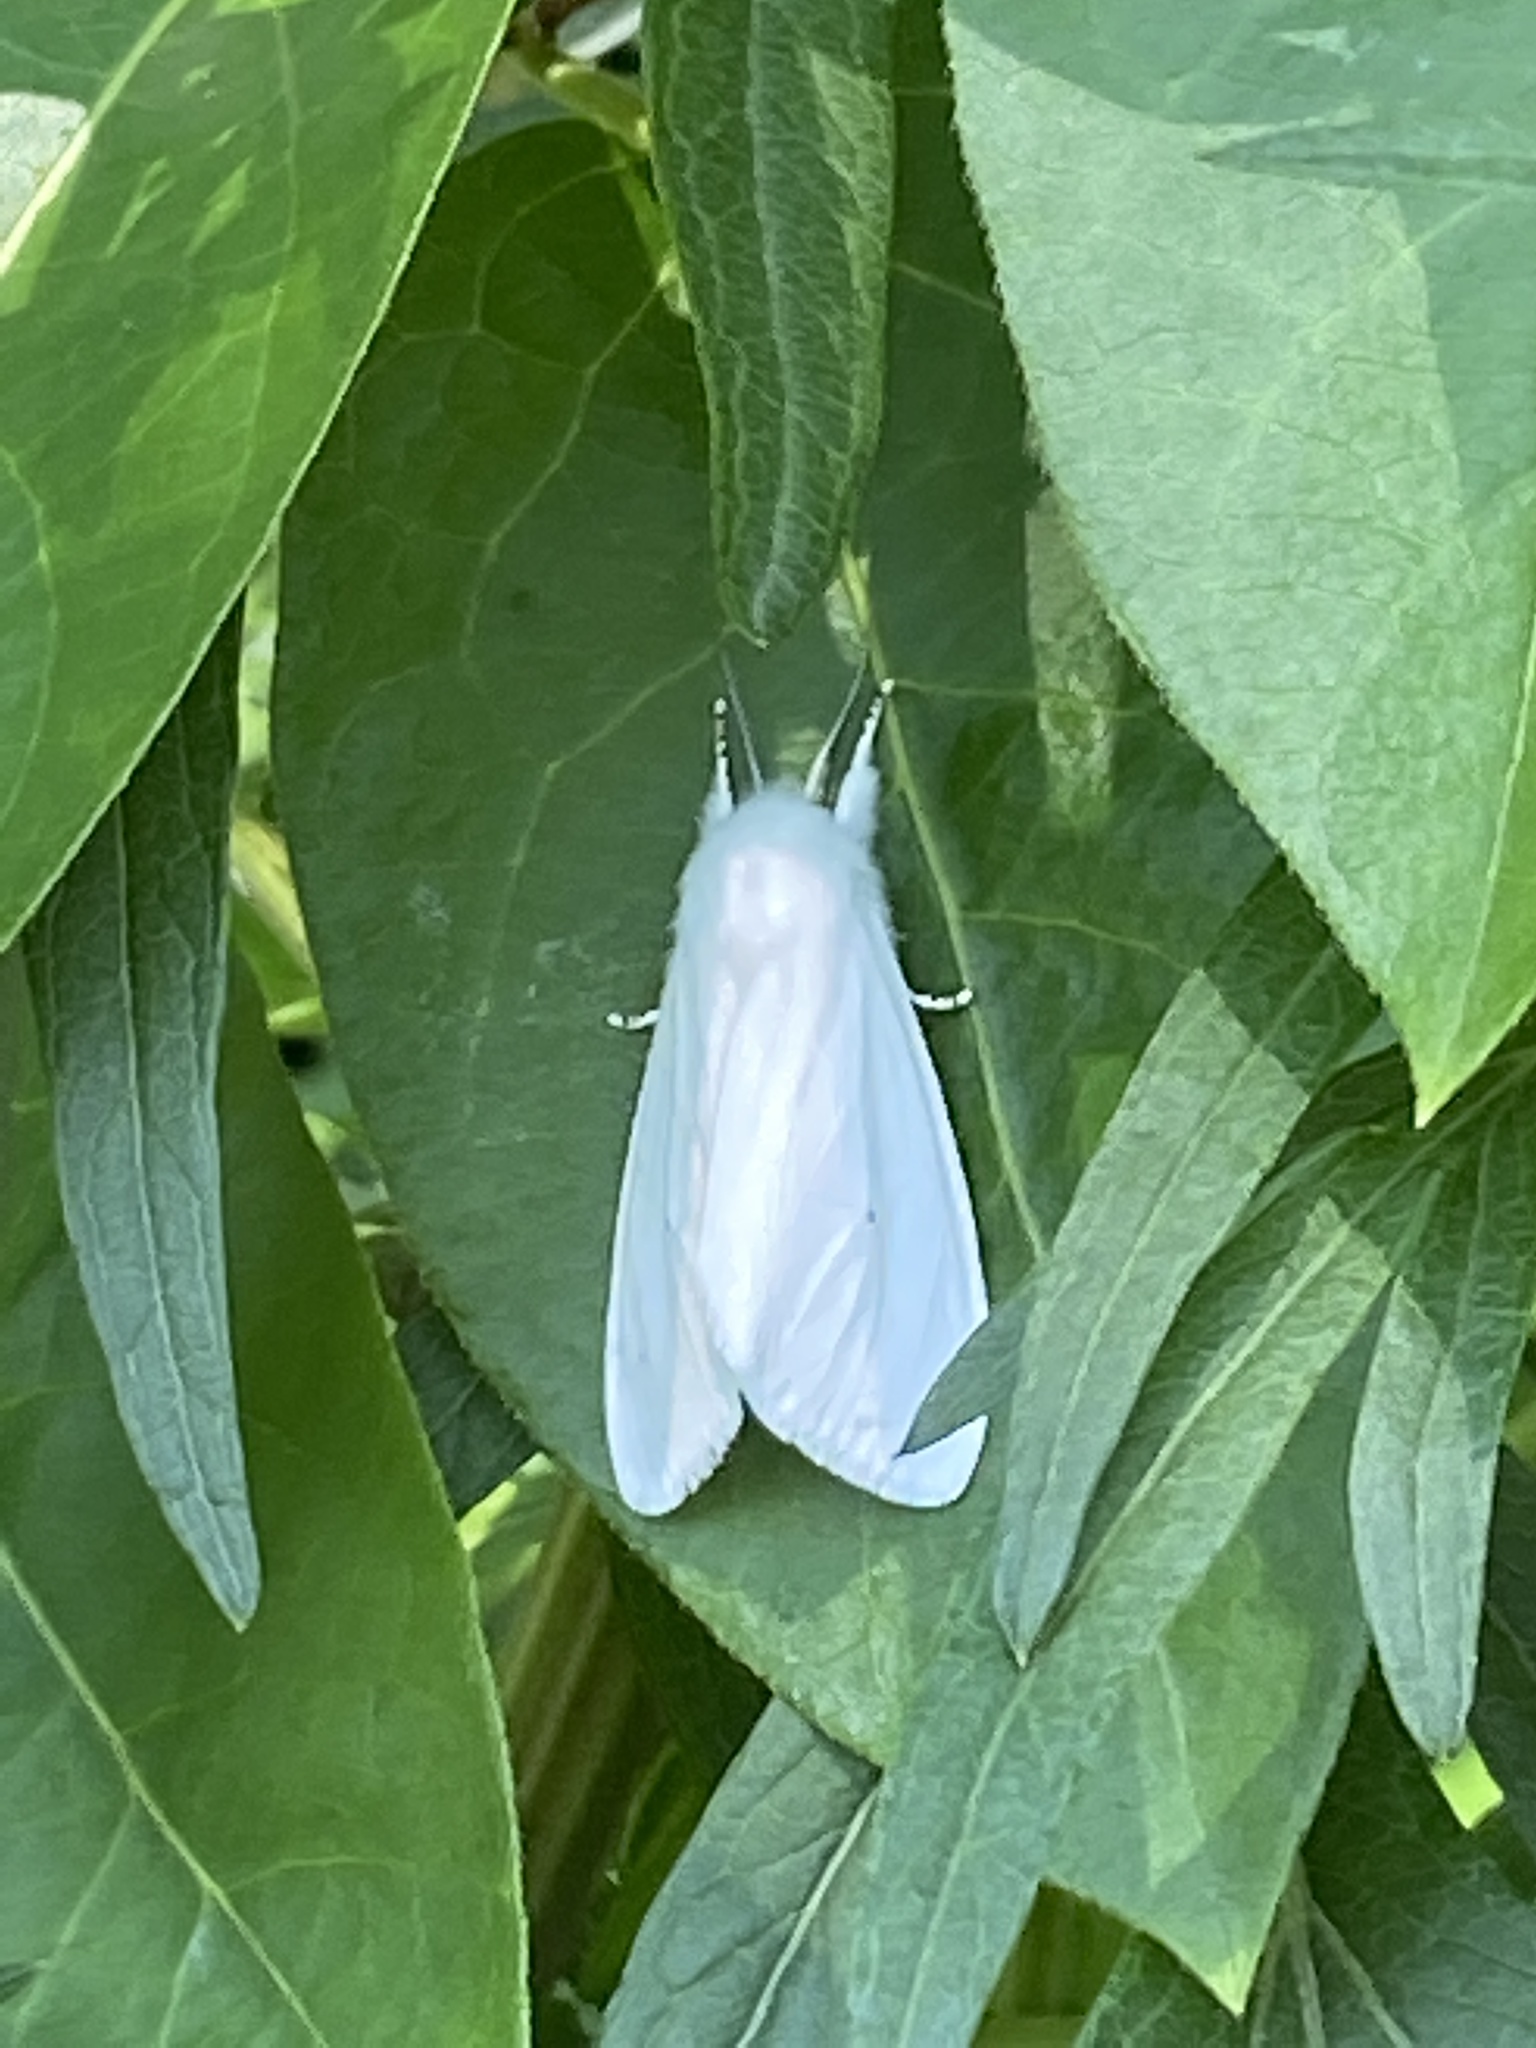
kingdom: Animalia
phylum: Arthropoda
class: Insecta
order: Lepidoptera
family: Erebidae
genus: Spilosoma
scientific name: Spilosoma virginica
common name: Virginia tiger moth
